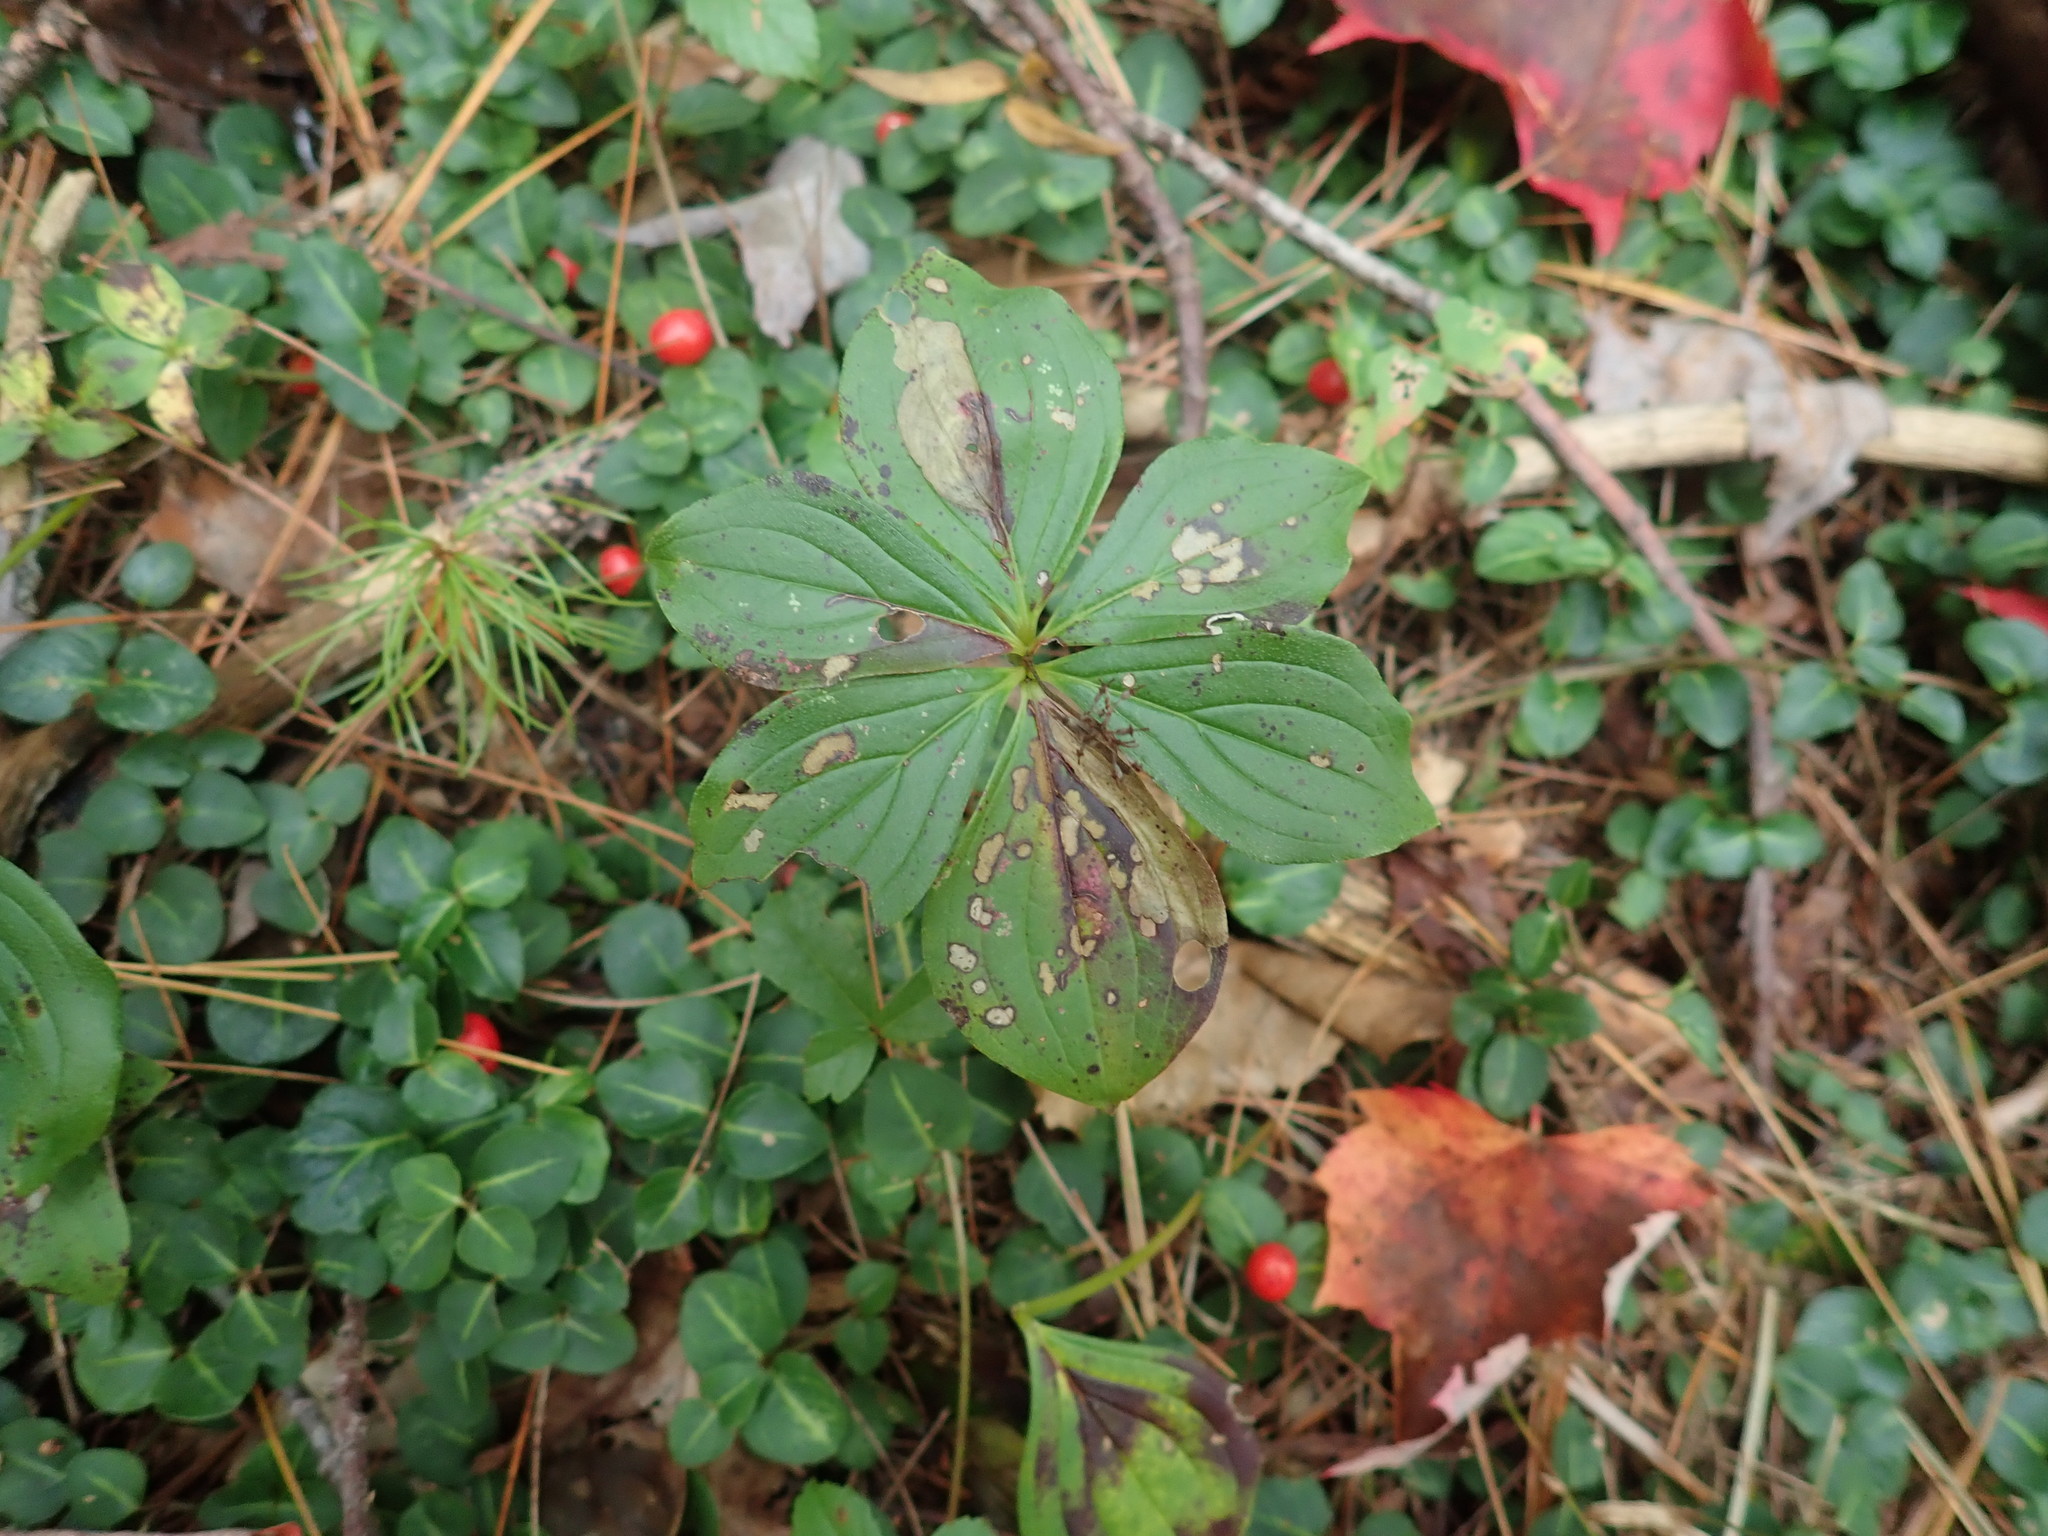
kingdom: Plantae
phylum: Tracheophyta
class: Magnoliopsida
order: Cornales
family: Cornaceae
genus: Cornus
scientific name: Cornus canadensis
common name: Creeping dogwood
